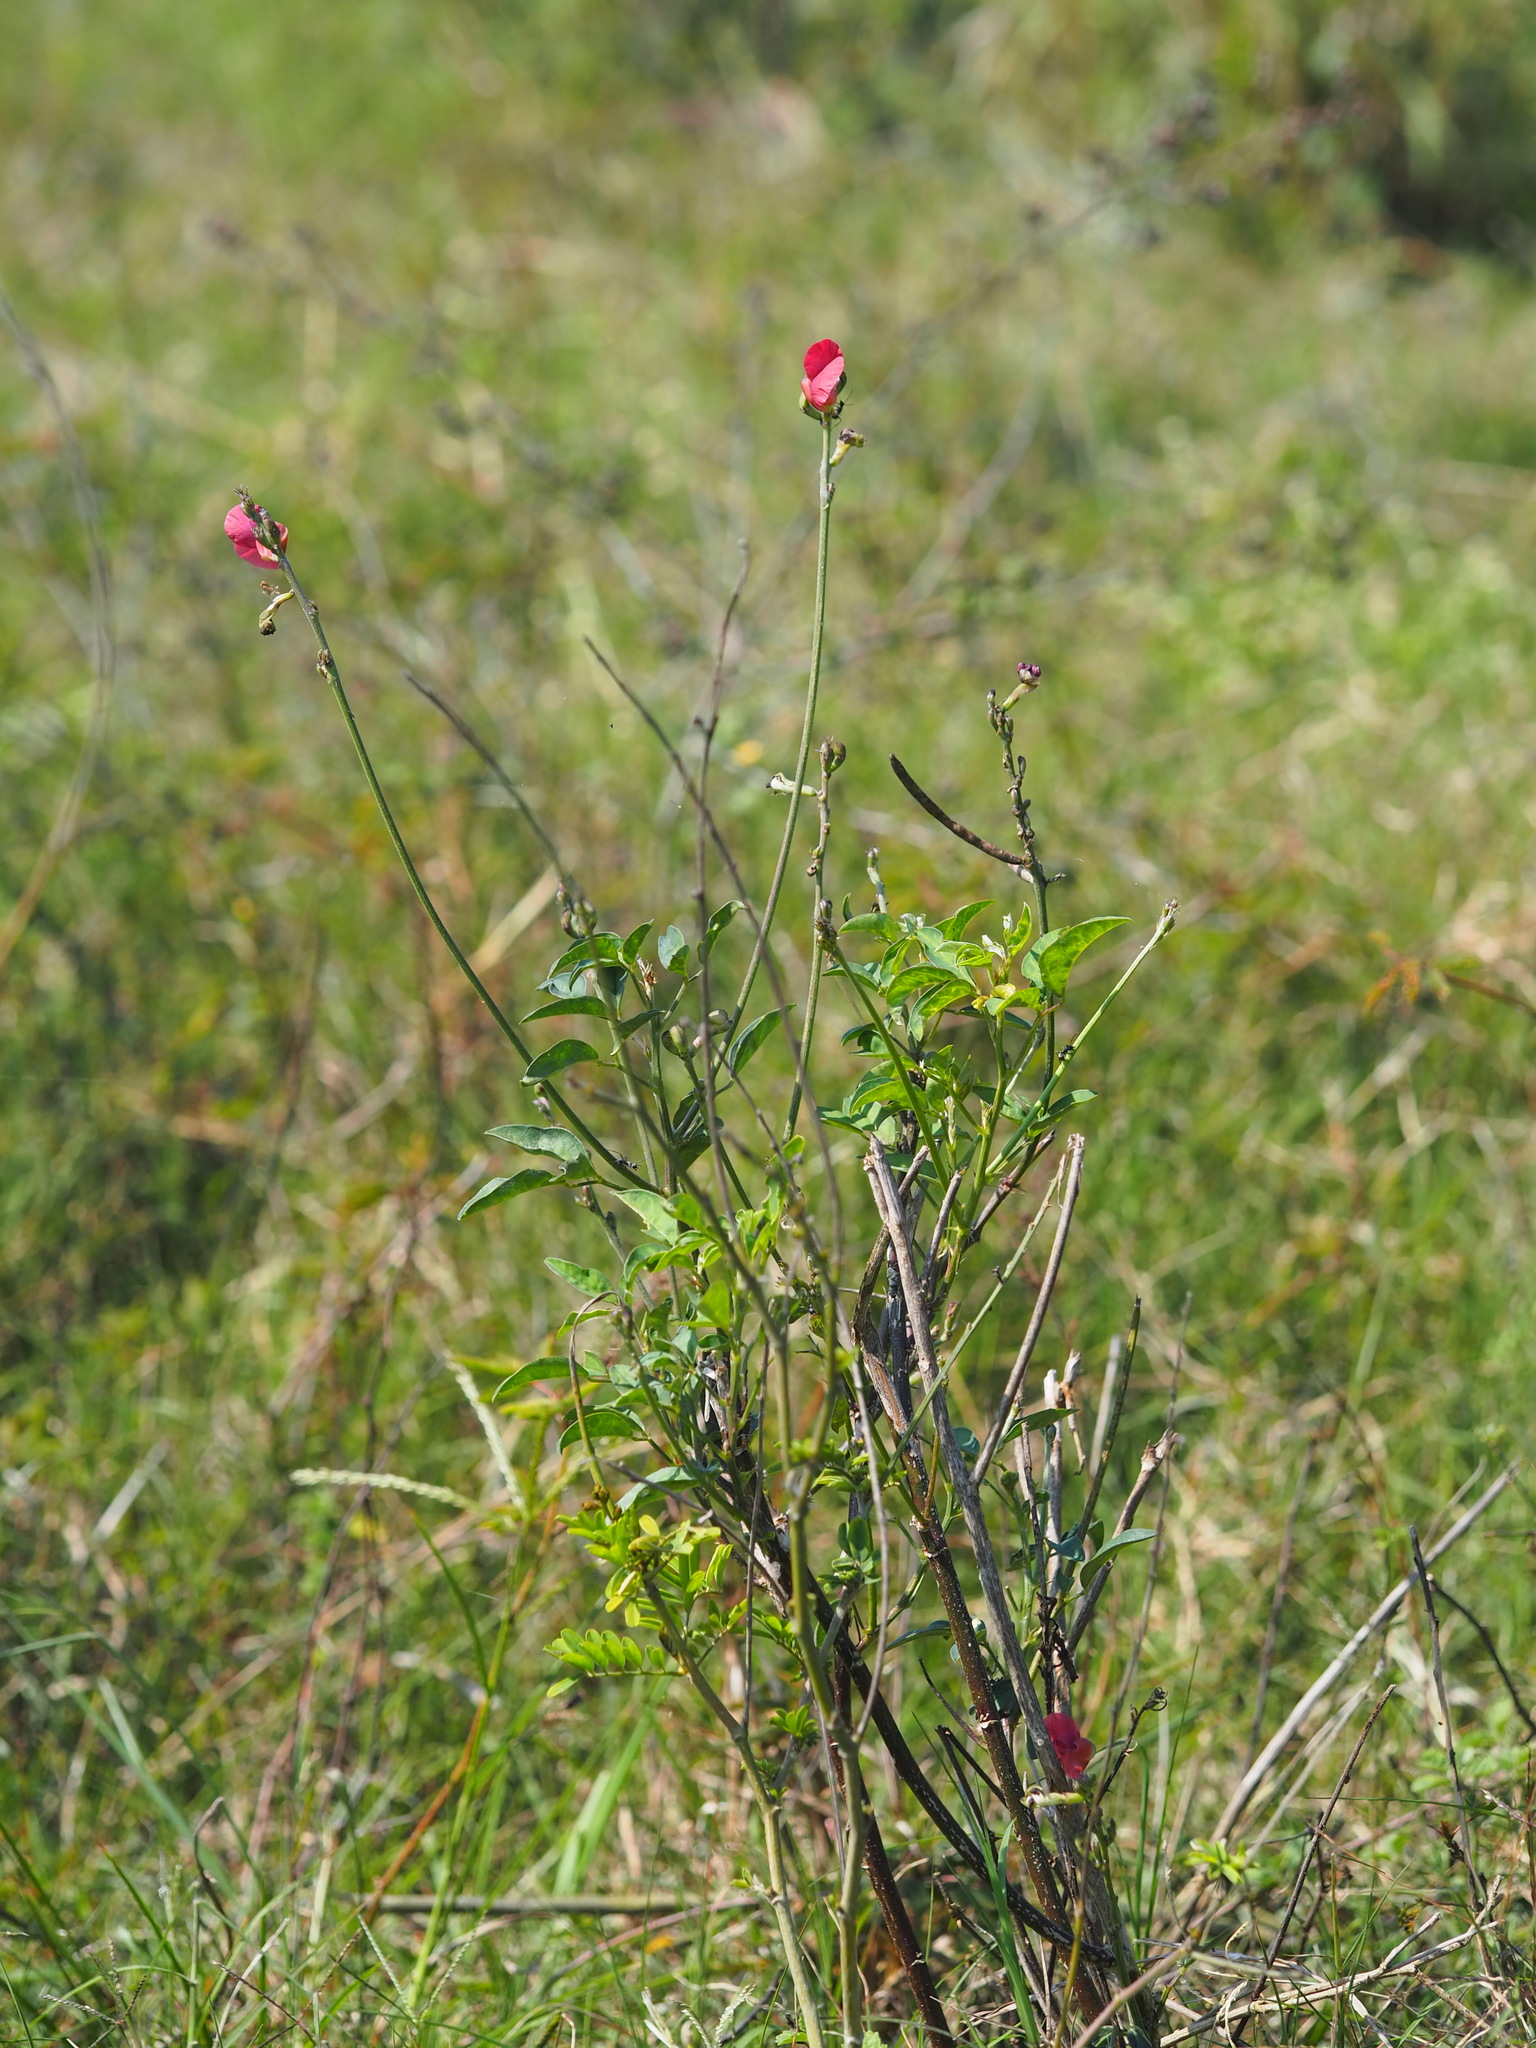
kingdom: Plantae
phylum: Tracheophyta
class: Magnoliopsida
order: Fabales
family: Fabaceae
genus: Macroptilium
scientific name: Macroptilium lathyroides
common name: Wild bushbean
